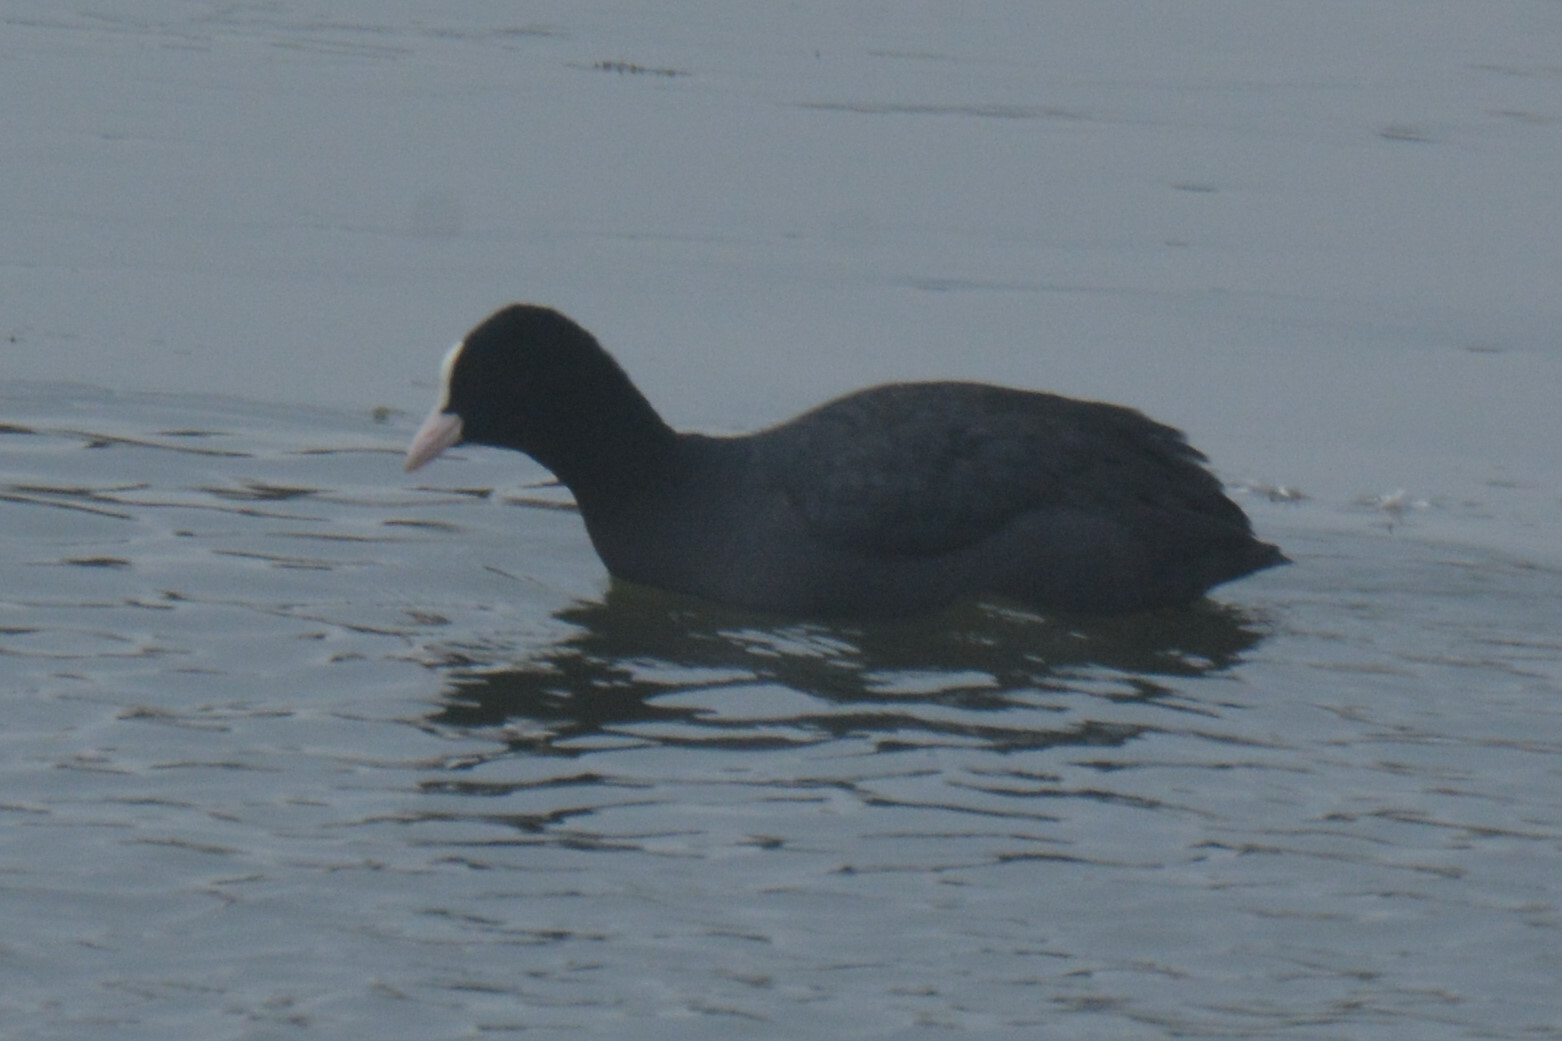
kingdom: Animalia
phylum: Chordata
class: Aves
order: Gruiformes
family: Rallidae
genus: Fulica
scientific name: Fulica atra
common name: Eurasian coot
